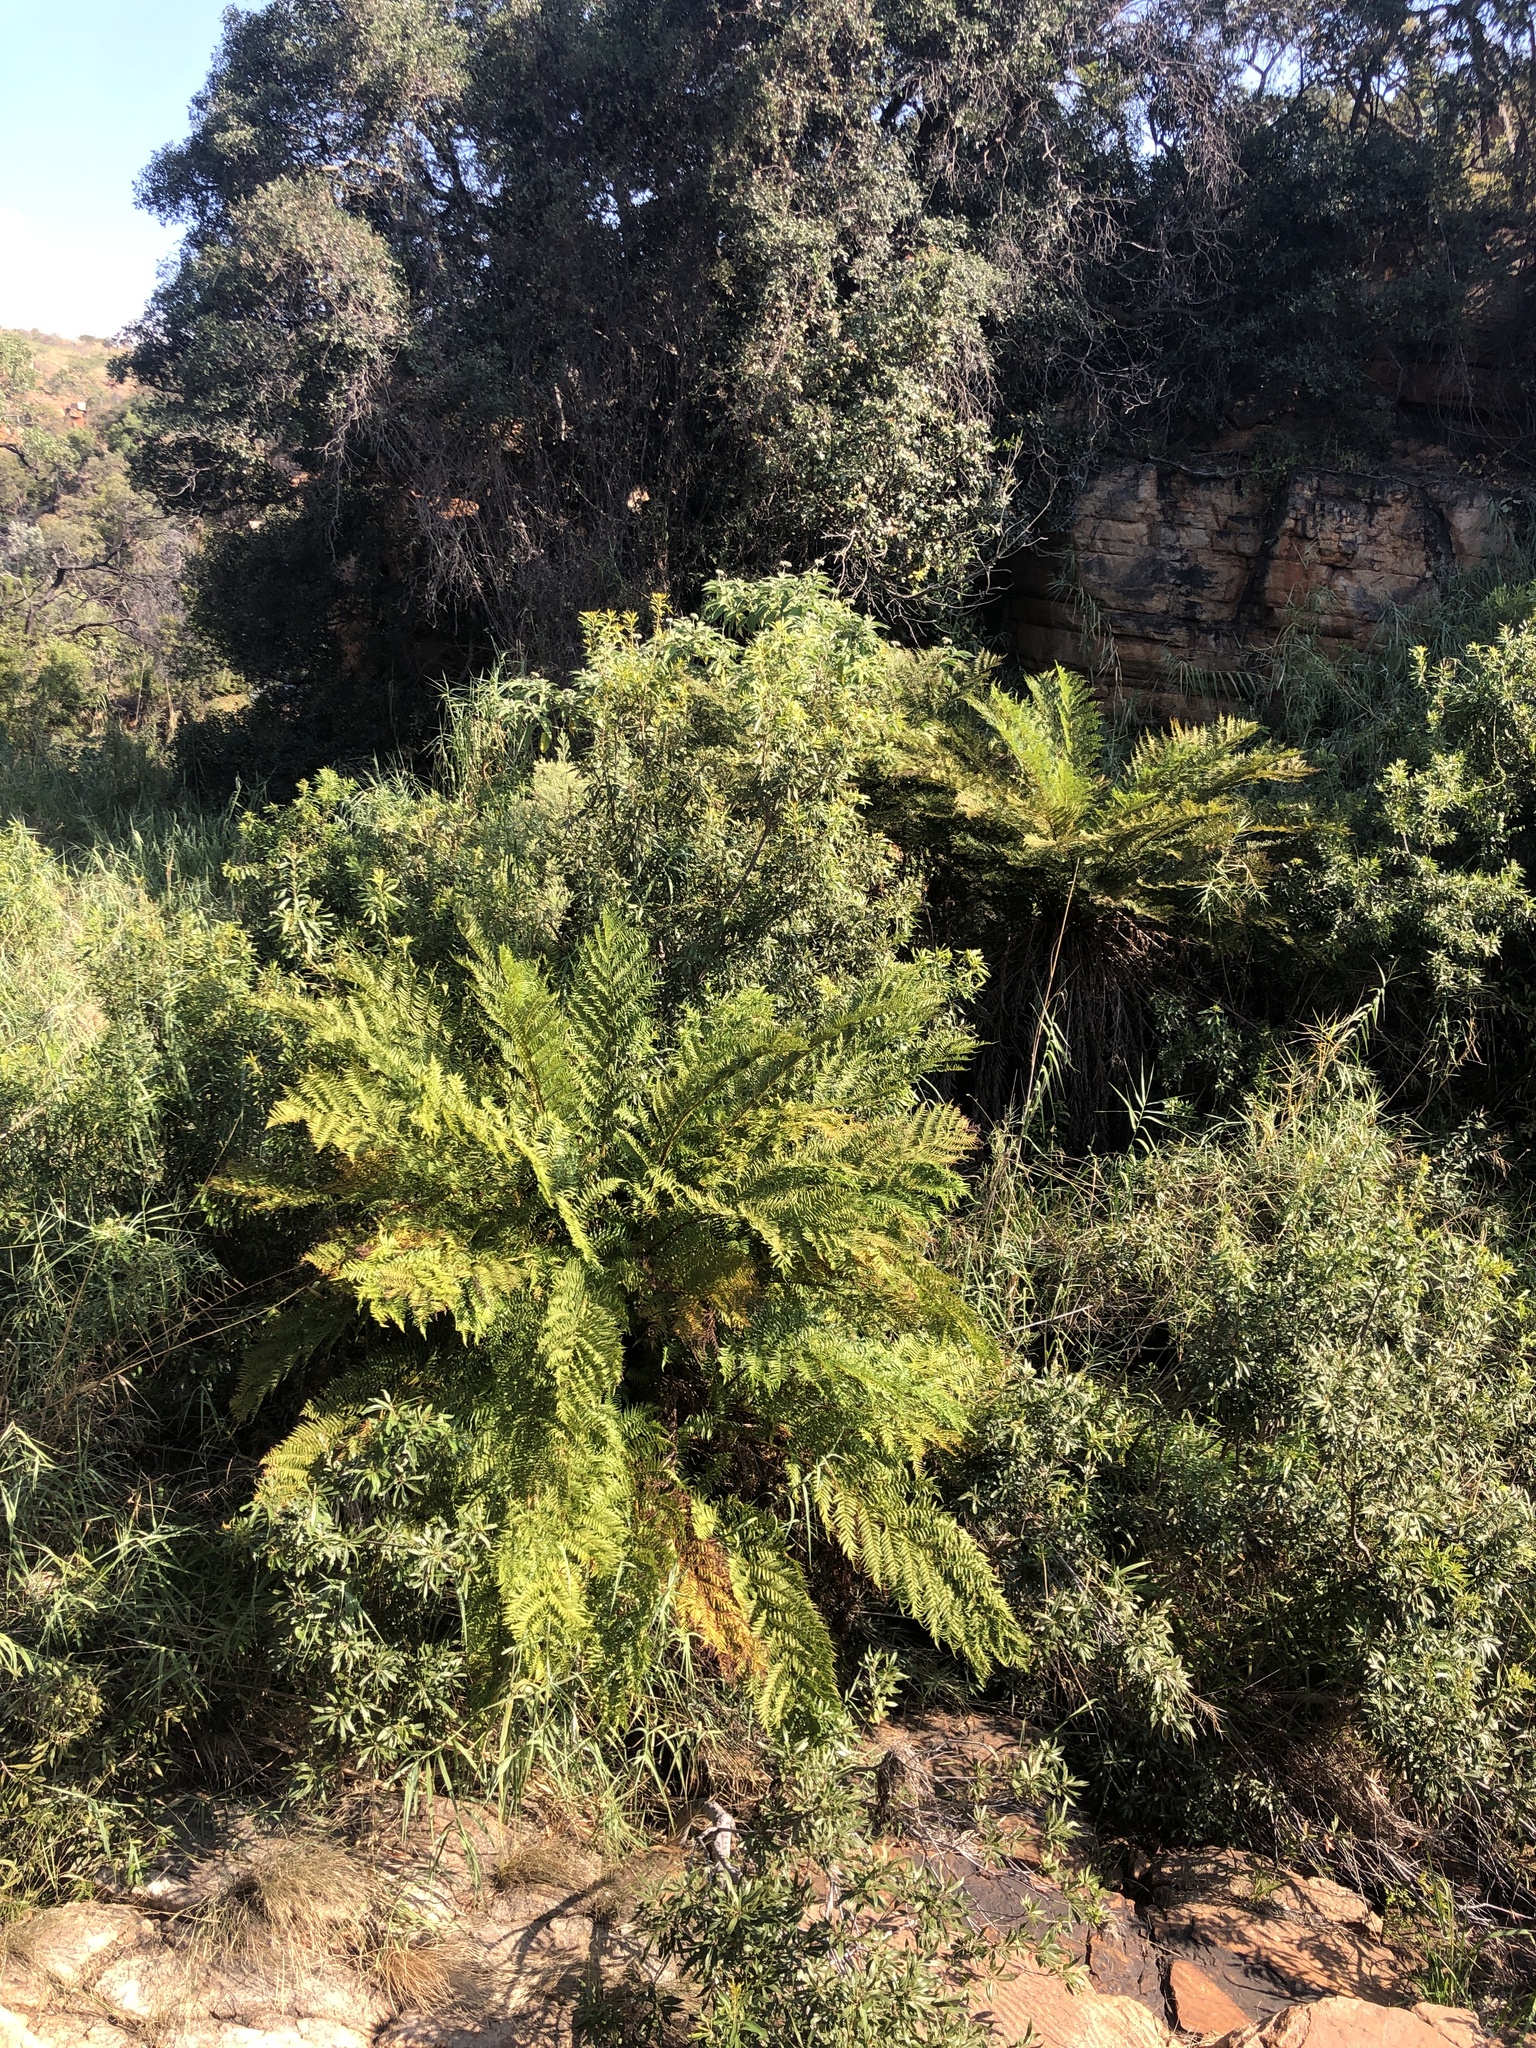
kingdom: Plantae
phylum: Tracheophyta
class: Polypodiopsida
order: Cyatheales
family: Cyatheaceae
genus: Alsophila
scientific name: Alsophila dregei
